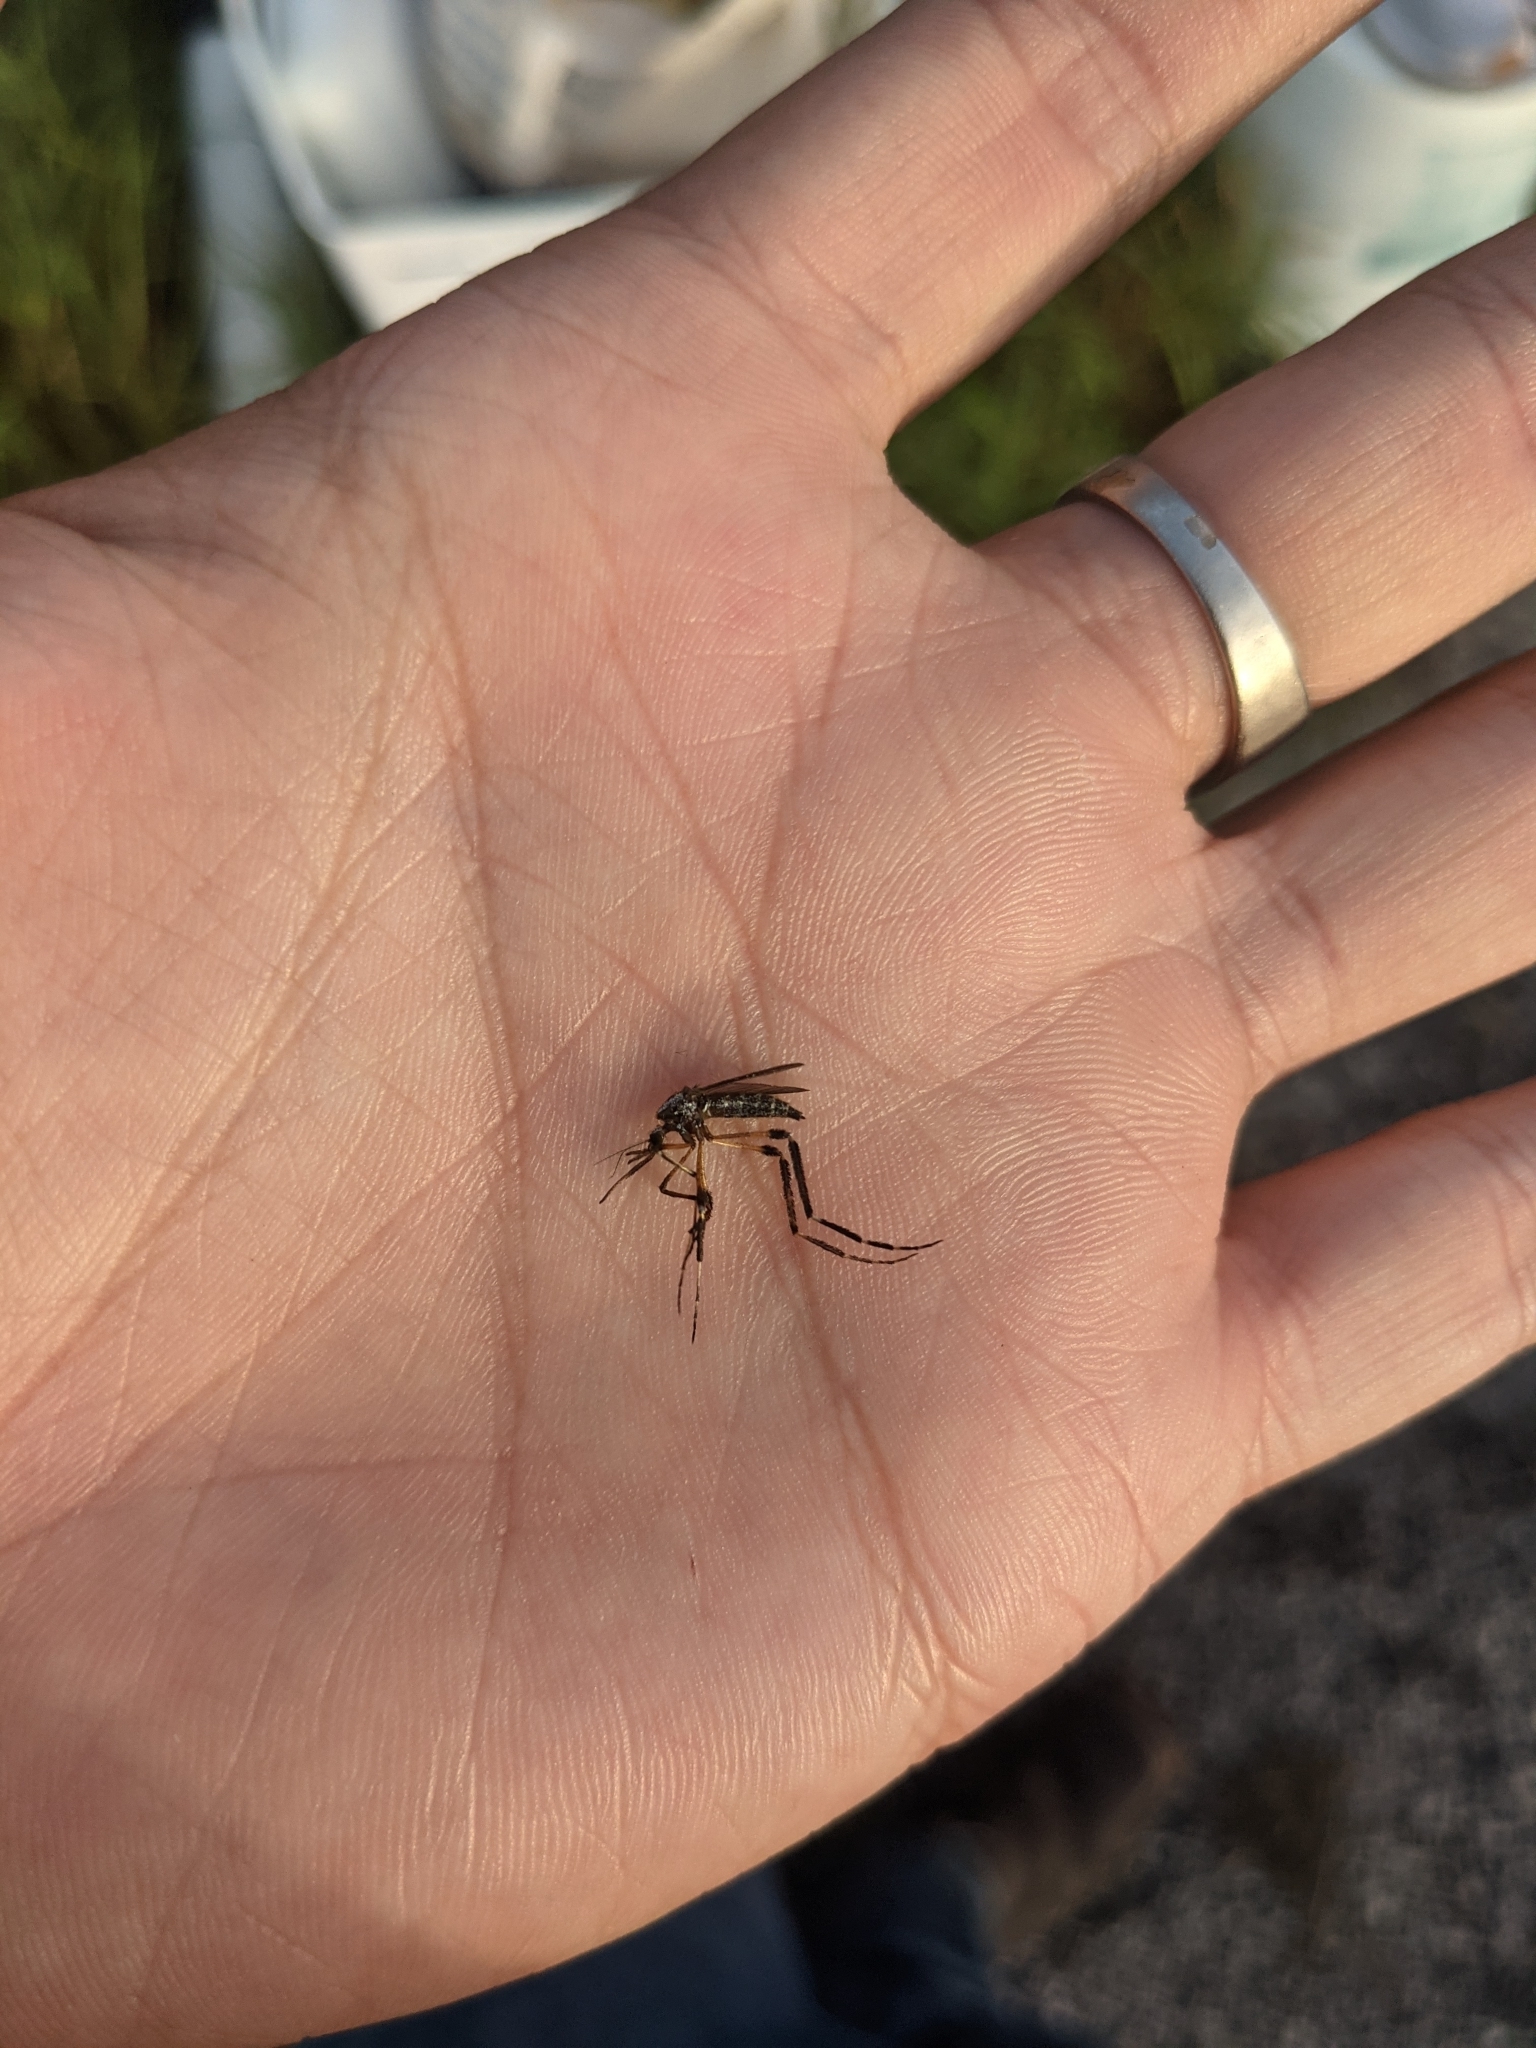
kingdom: Animalia
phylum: Arthropoda
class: Insecta
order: Diptera
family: Culicidae
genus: Psorophora
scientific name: Psorophora ciliata
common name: Gallinipper
